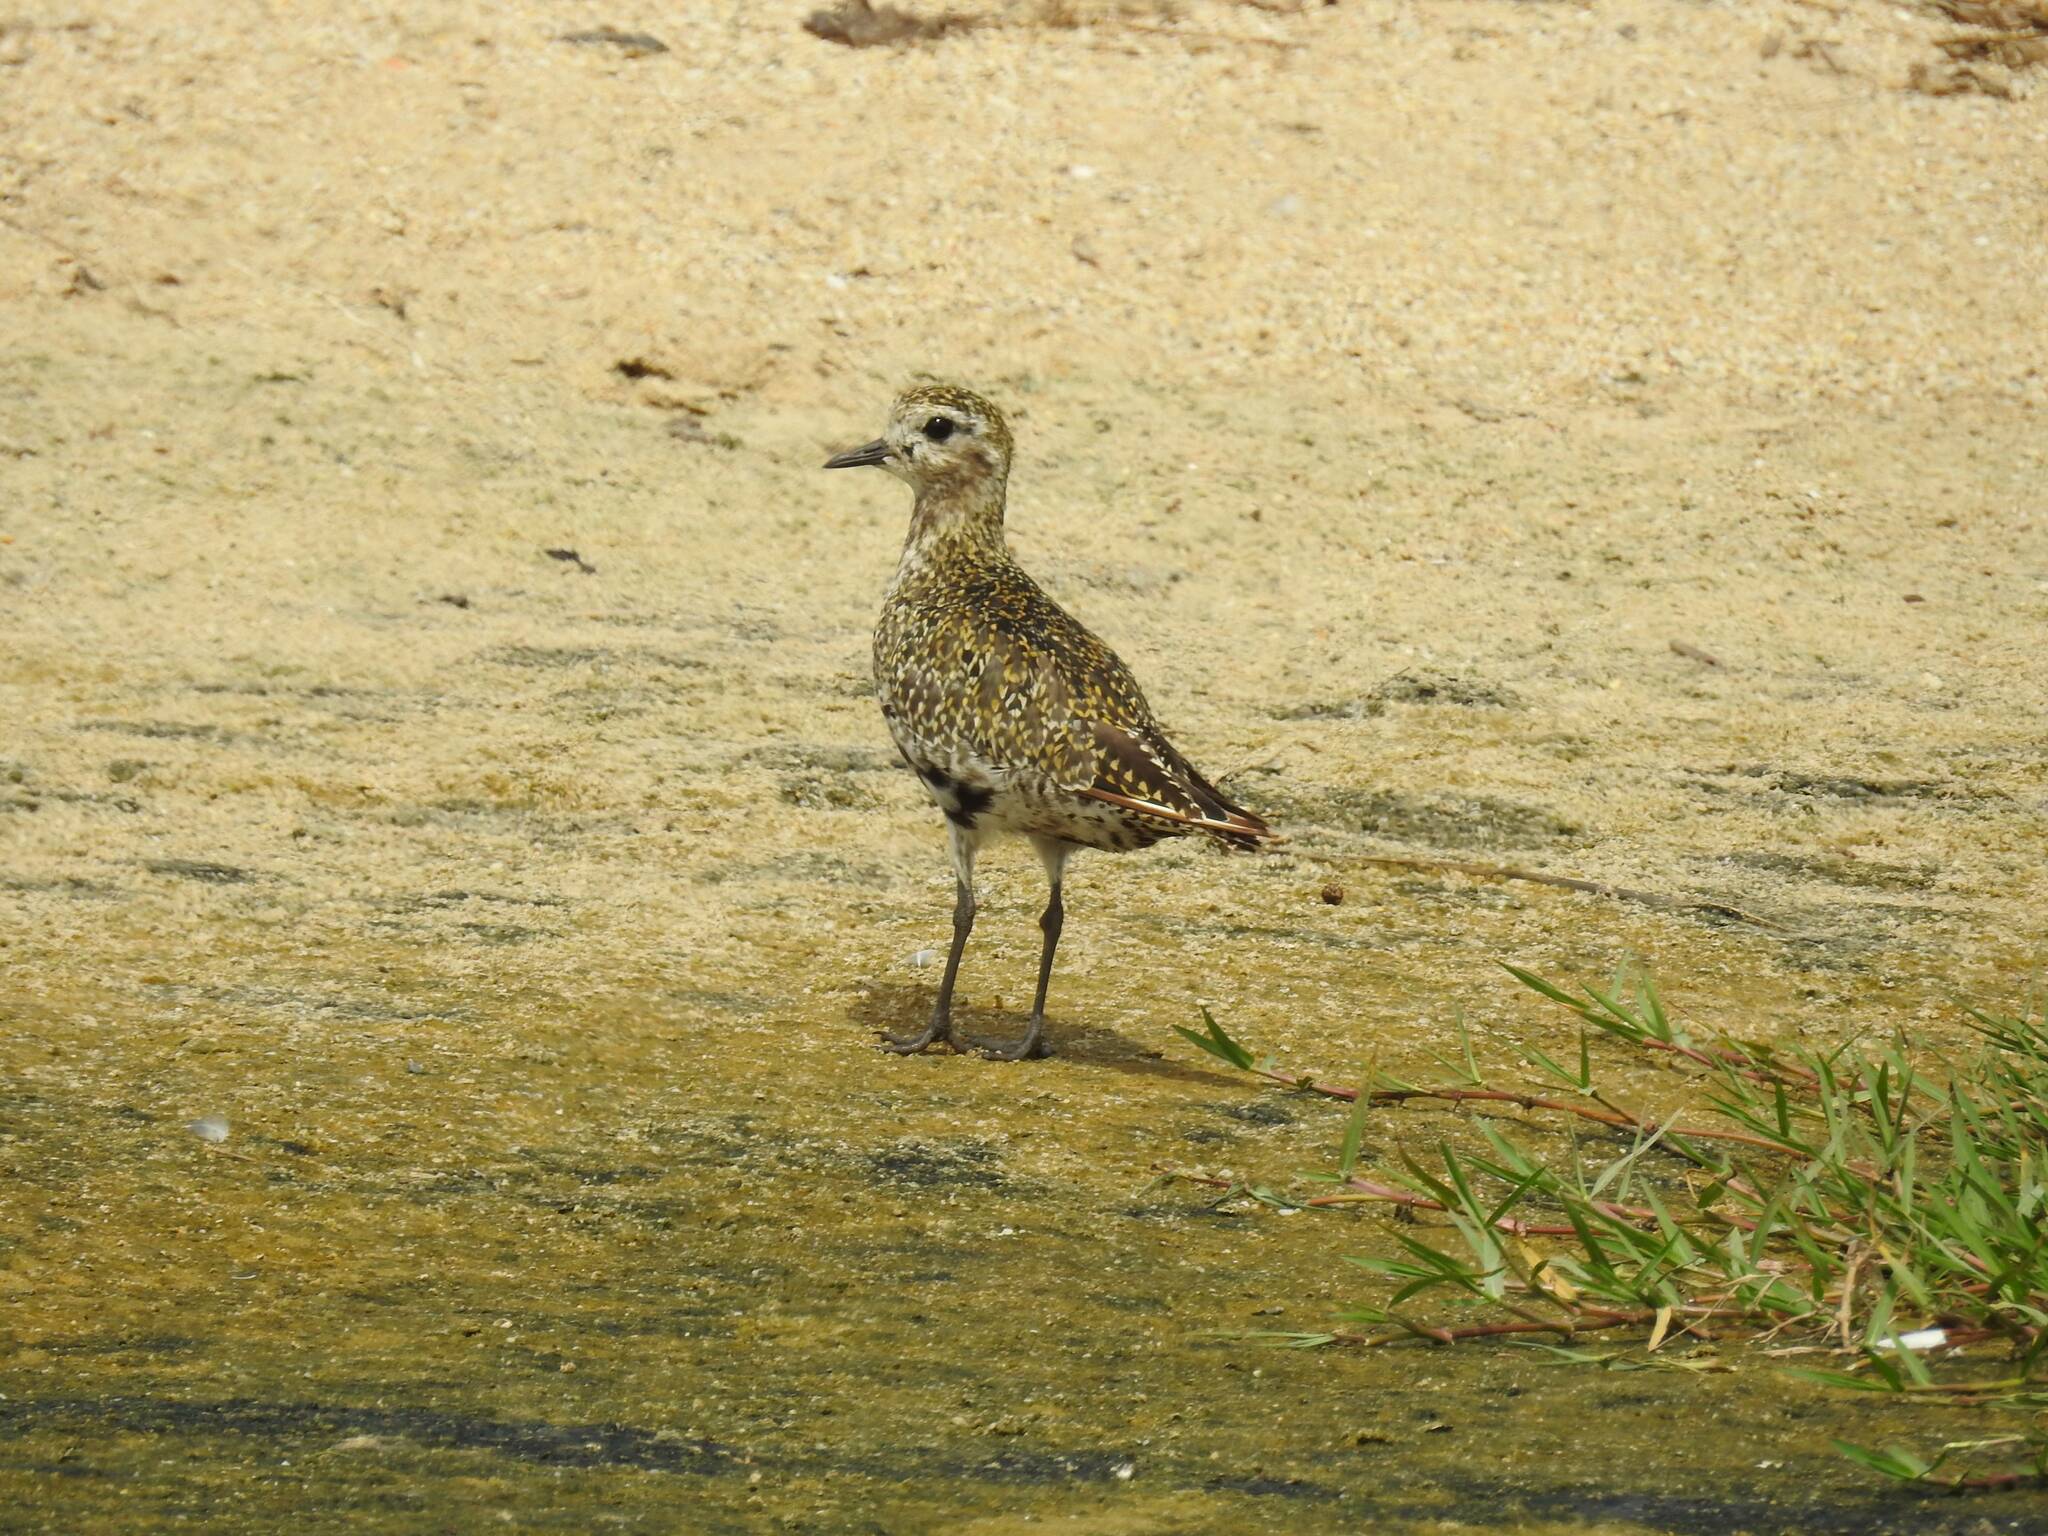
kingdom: Animalia
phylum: Chordata
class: Aves
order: Charadriiformes
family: Charadriidae
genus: Pluvialis
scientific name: Pluvialis apricaria
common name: European golden plover
